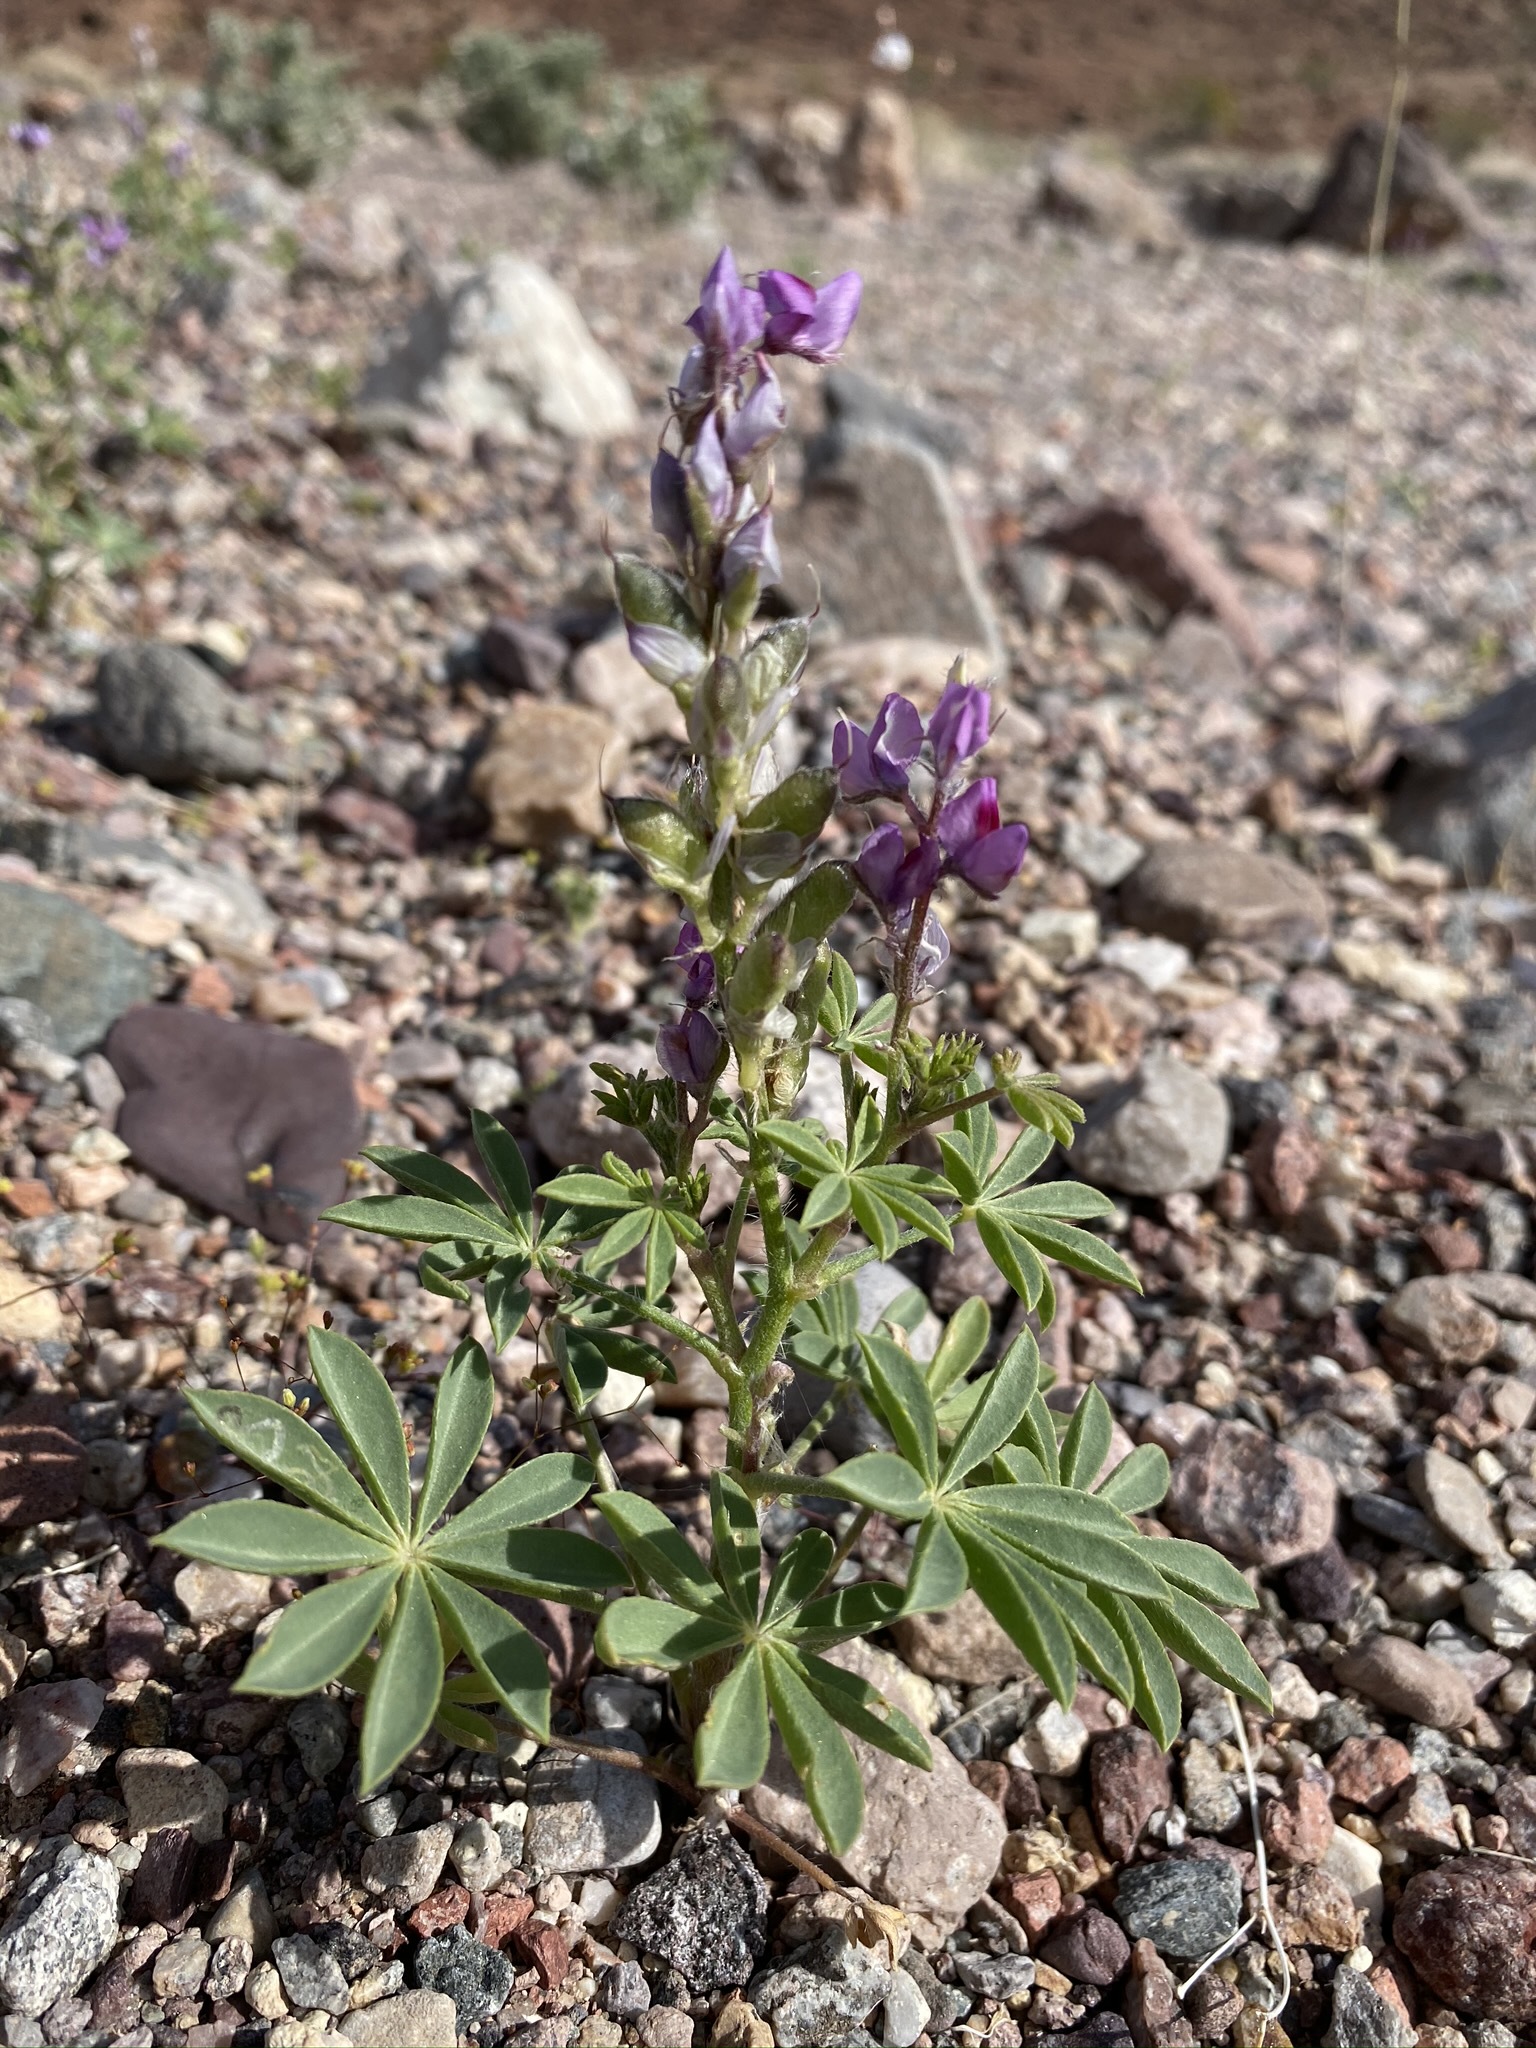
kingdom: Plantae
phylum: Tracheophyta
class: Magnoliopsida
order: Fabales
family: Fabaceae
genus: Lupinus
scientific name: Lupinus arizonicus
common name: Arizona lupine
